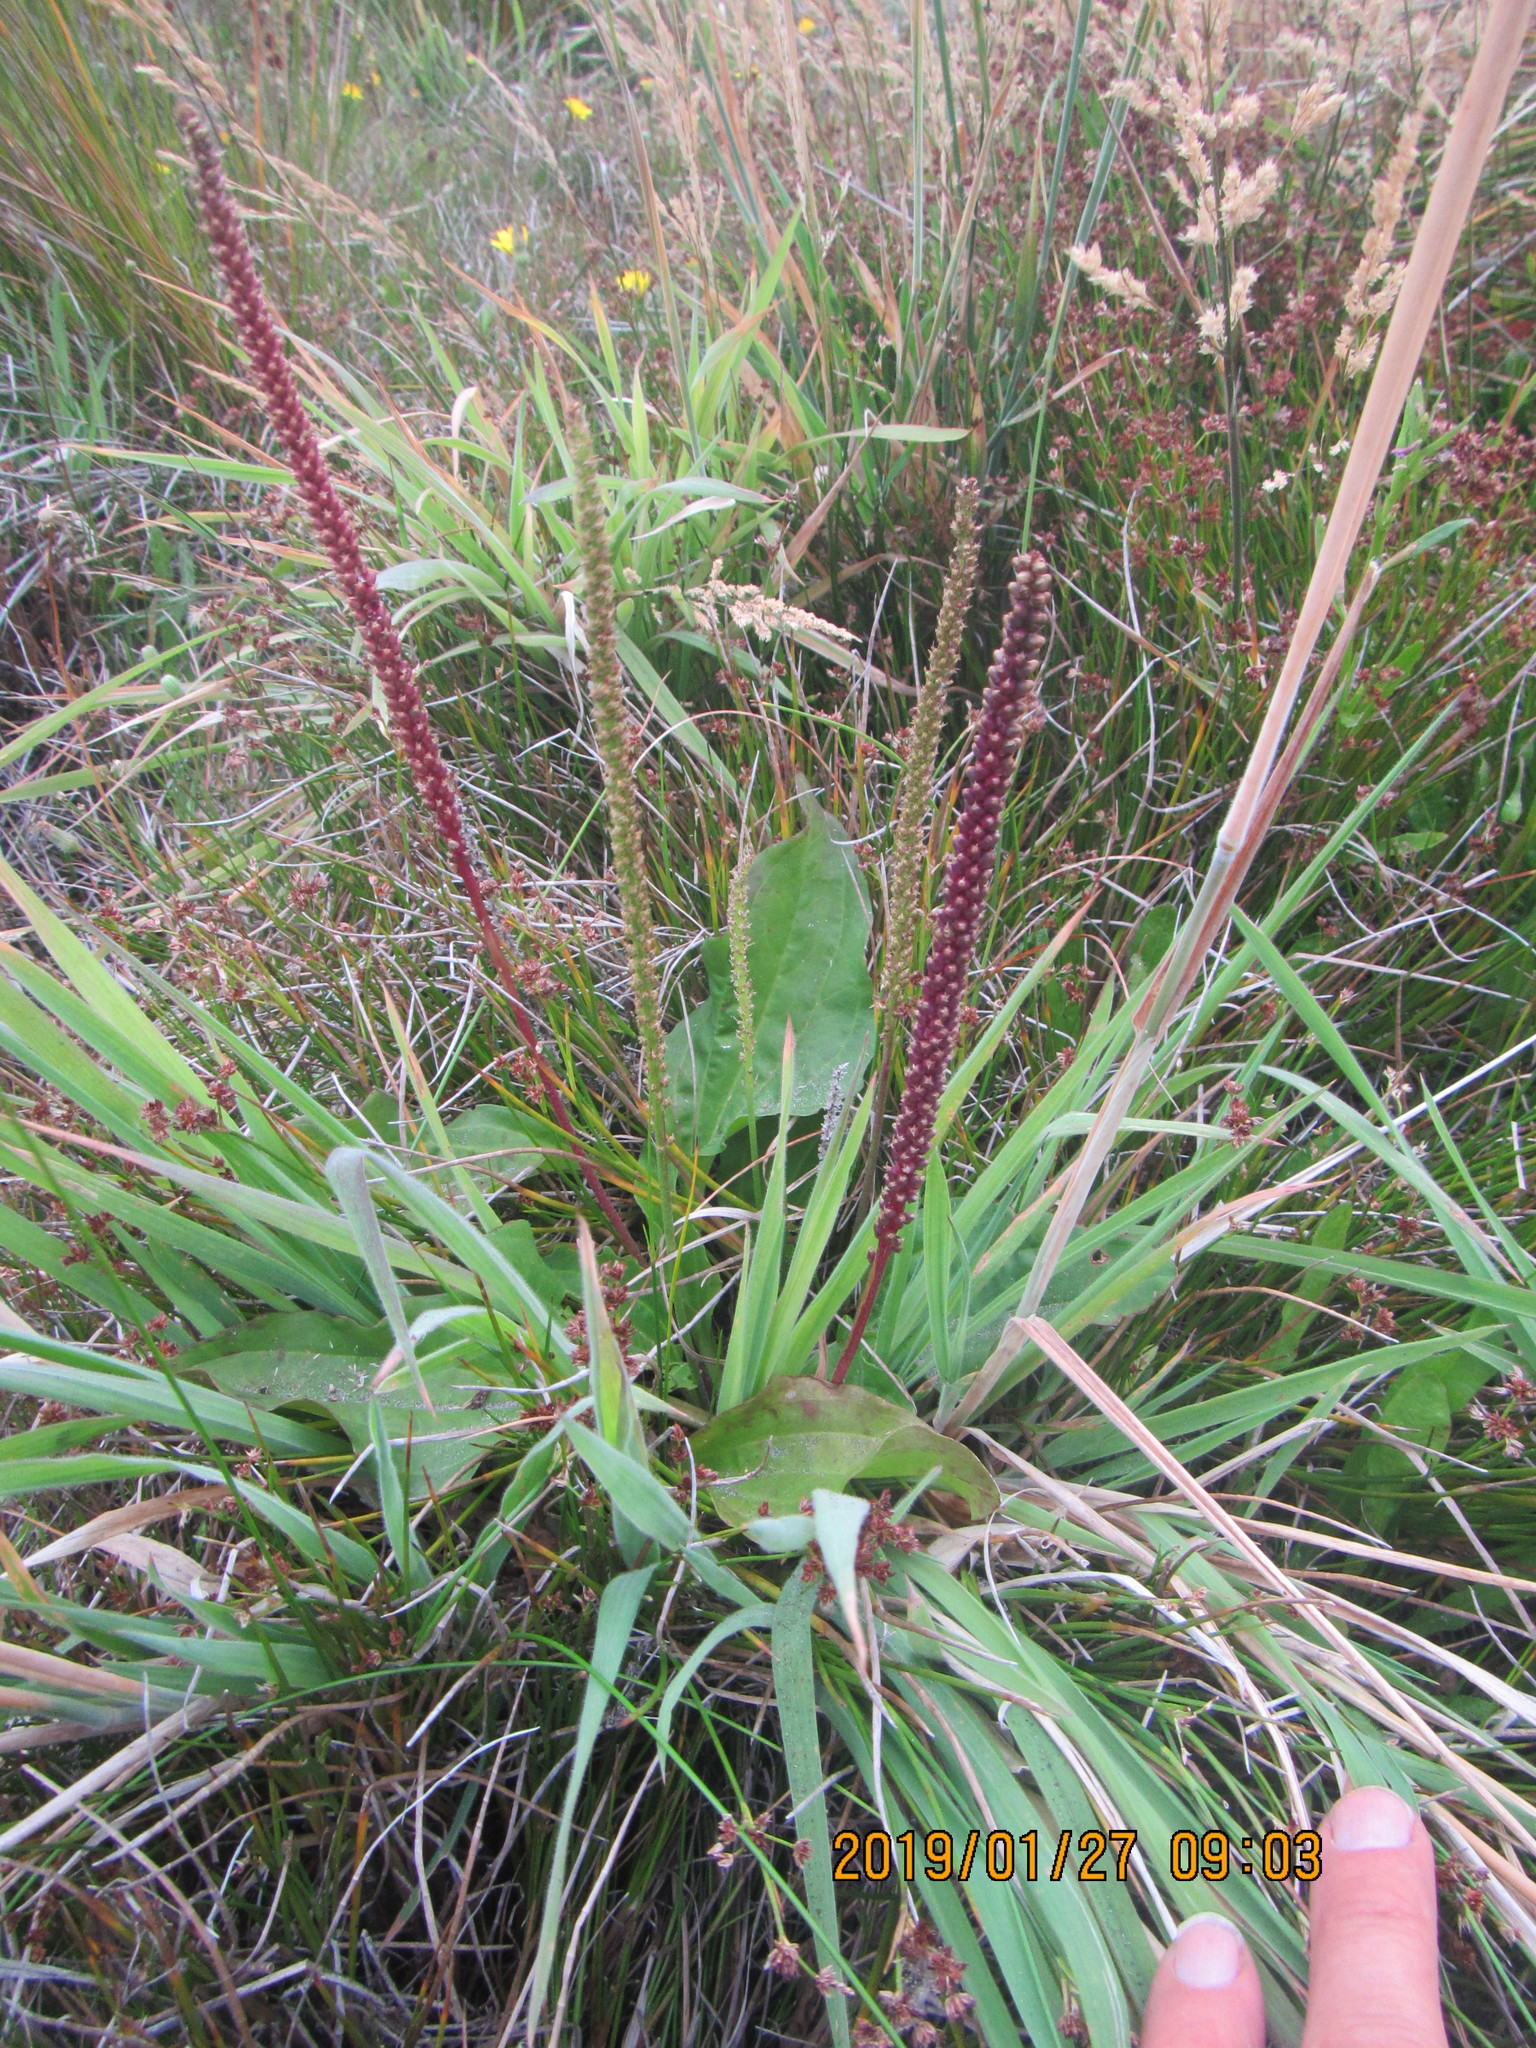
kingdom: Plantae
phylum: Tracheophyta
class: Magnoliopsida
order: Lamiales
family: Plantaginaceae
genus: Plantago
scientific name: Plantago major
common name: Common plantain
